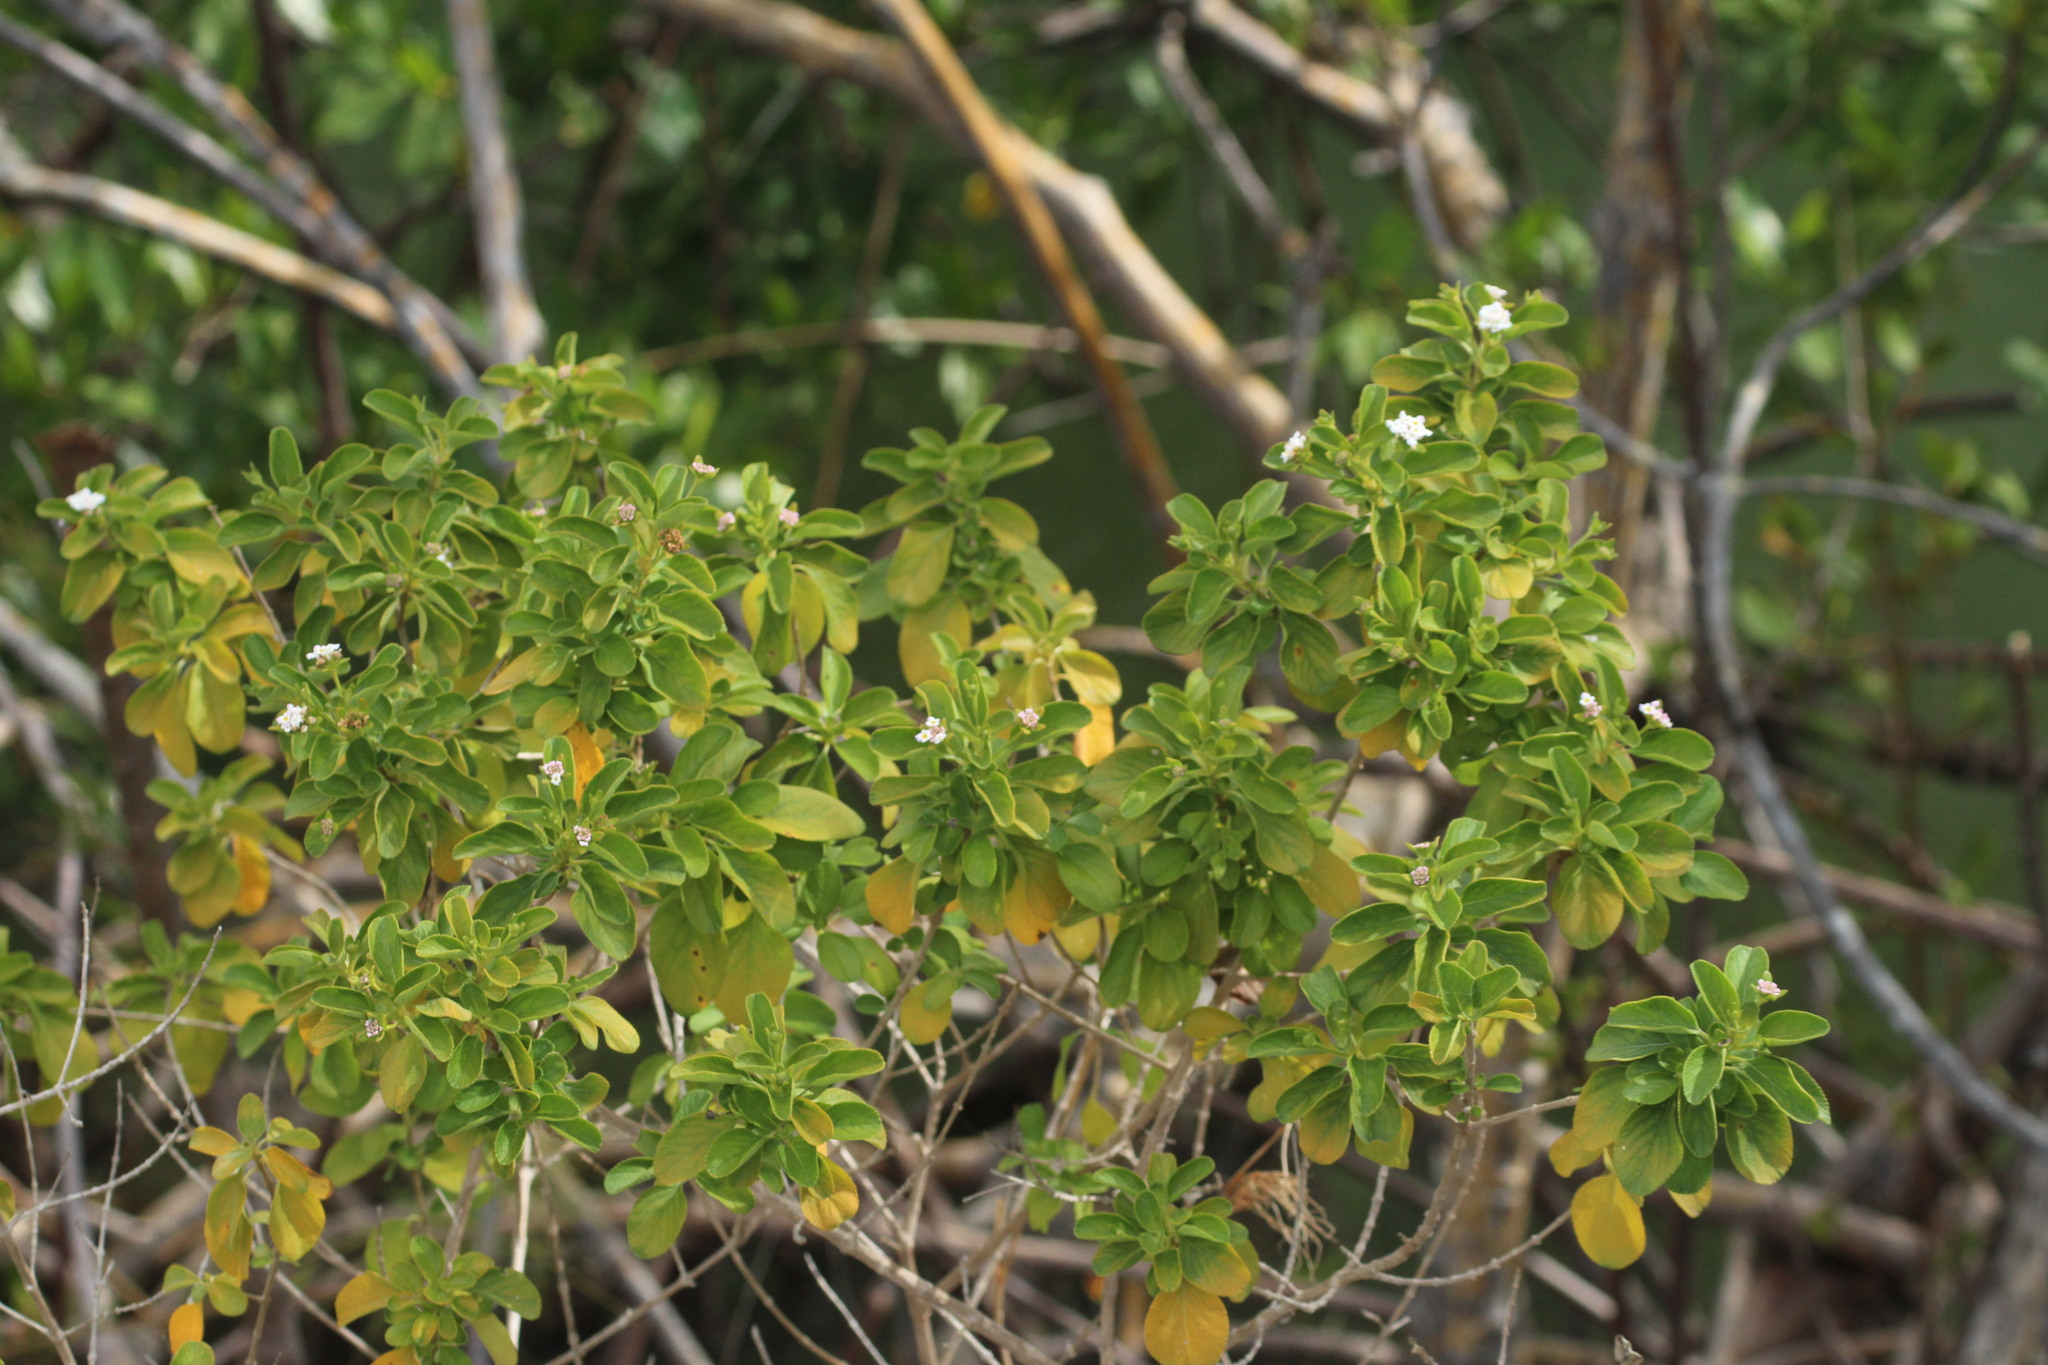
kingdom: Plantae
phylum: Tracheophyta
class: Magnoliopsida
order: Lamiales
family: Verbenaceae
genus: Lantana
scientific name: Lantana involucrata
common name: Black sage
